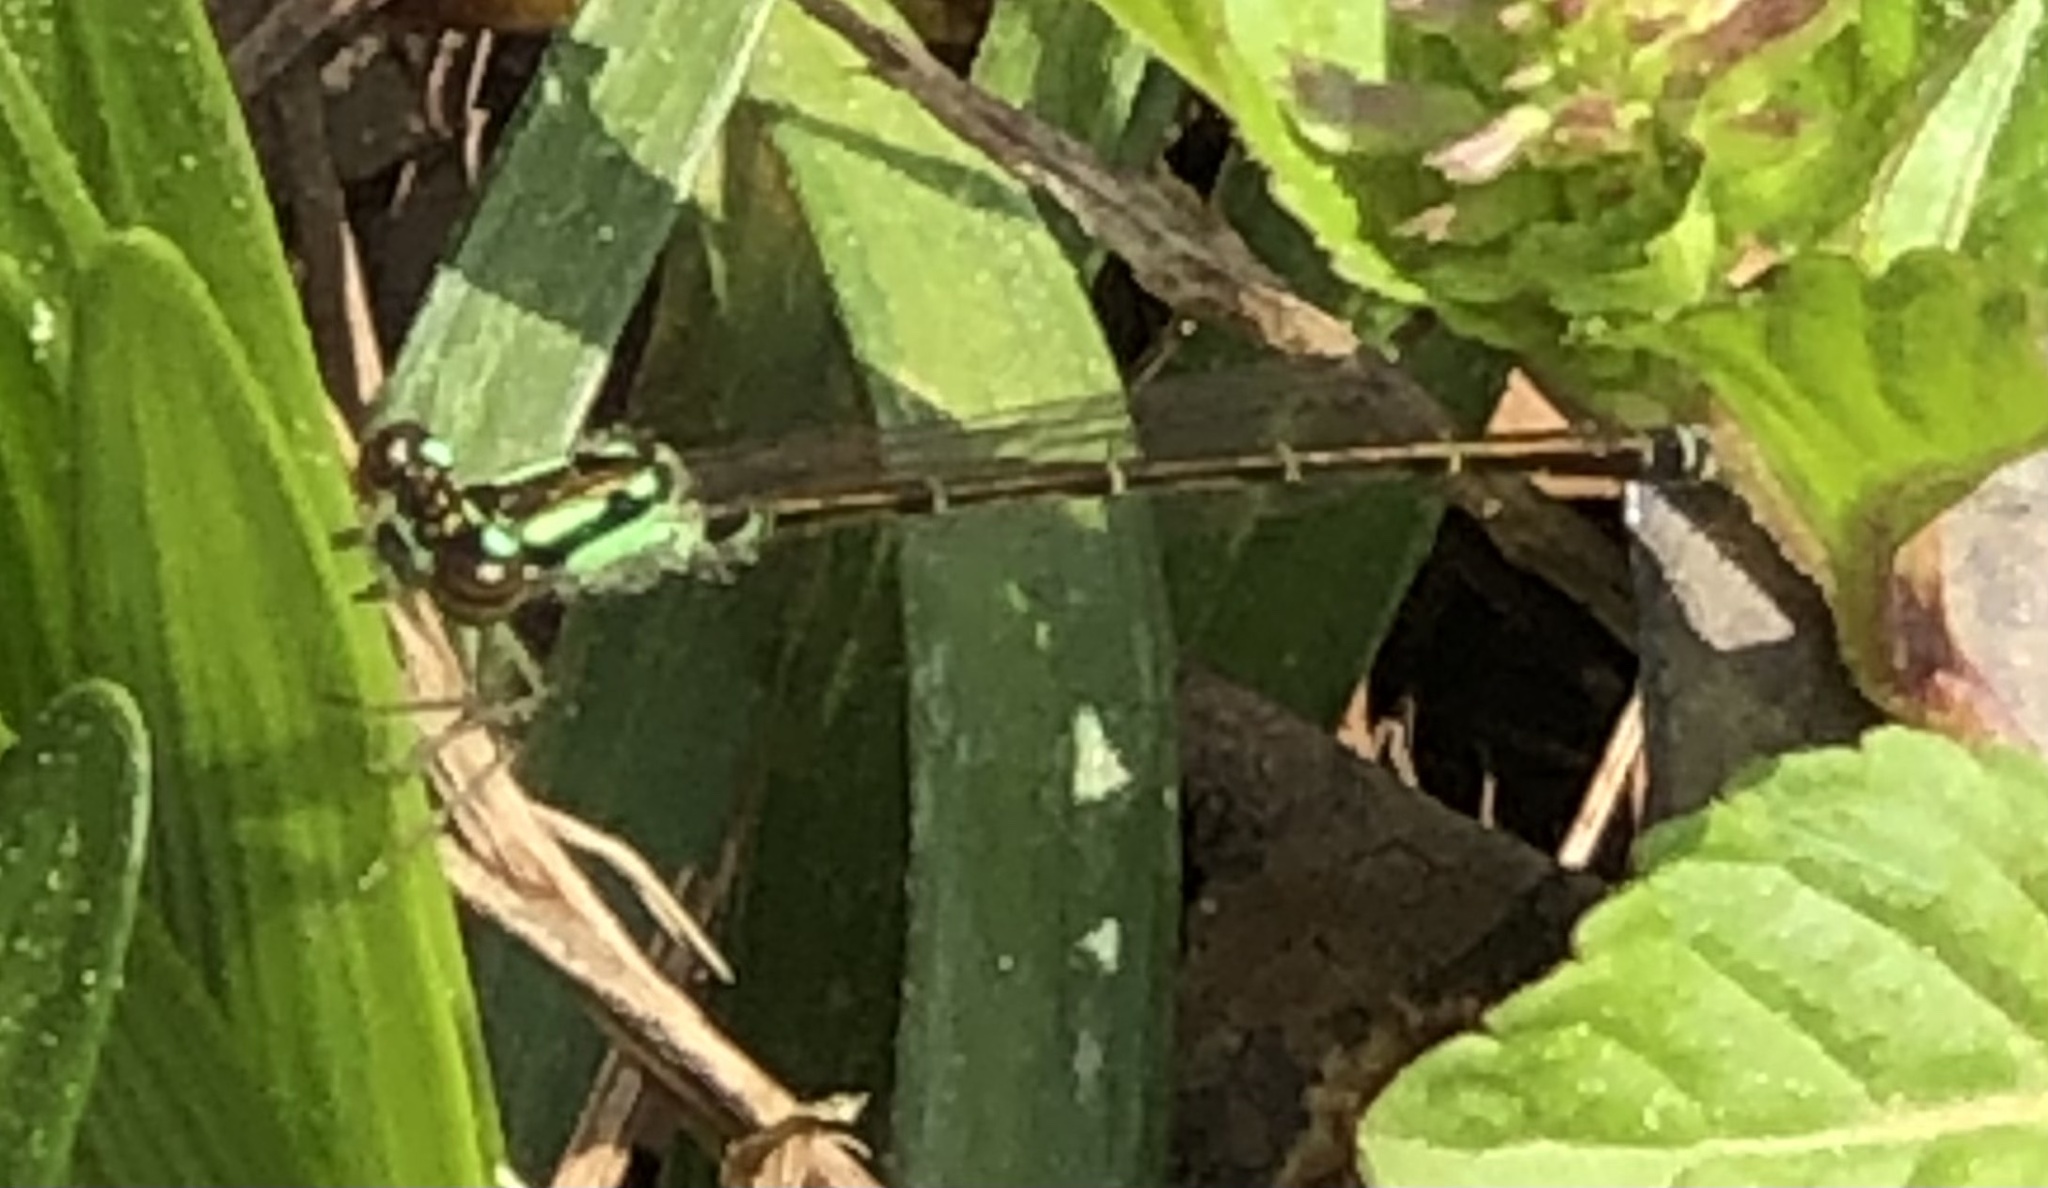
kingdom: Animalia
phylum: Arthropoda
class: Insecta
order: Odonata
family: Coenagrionidae
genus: Ischnura
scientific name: Ischnura posita
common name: Fragile forktail
